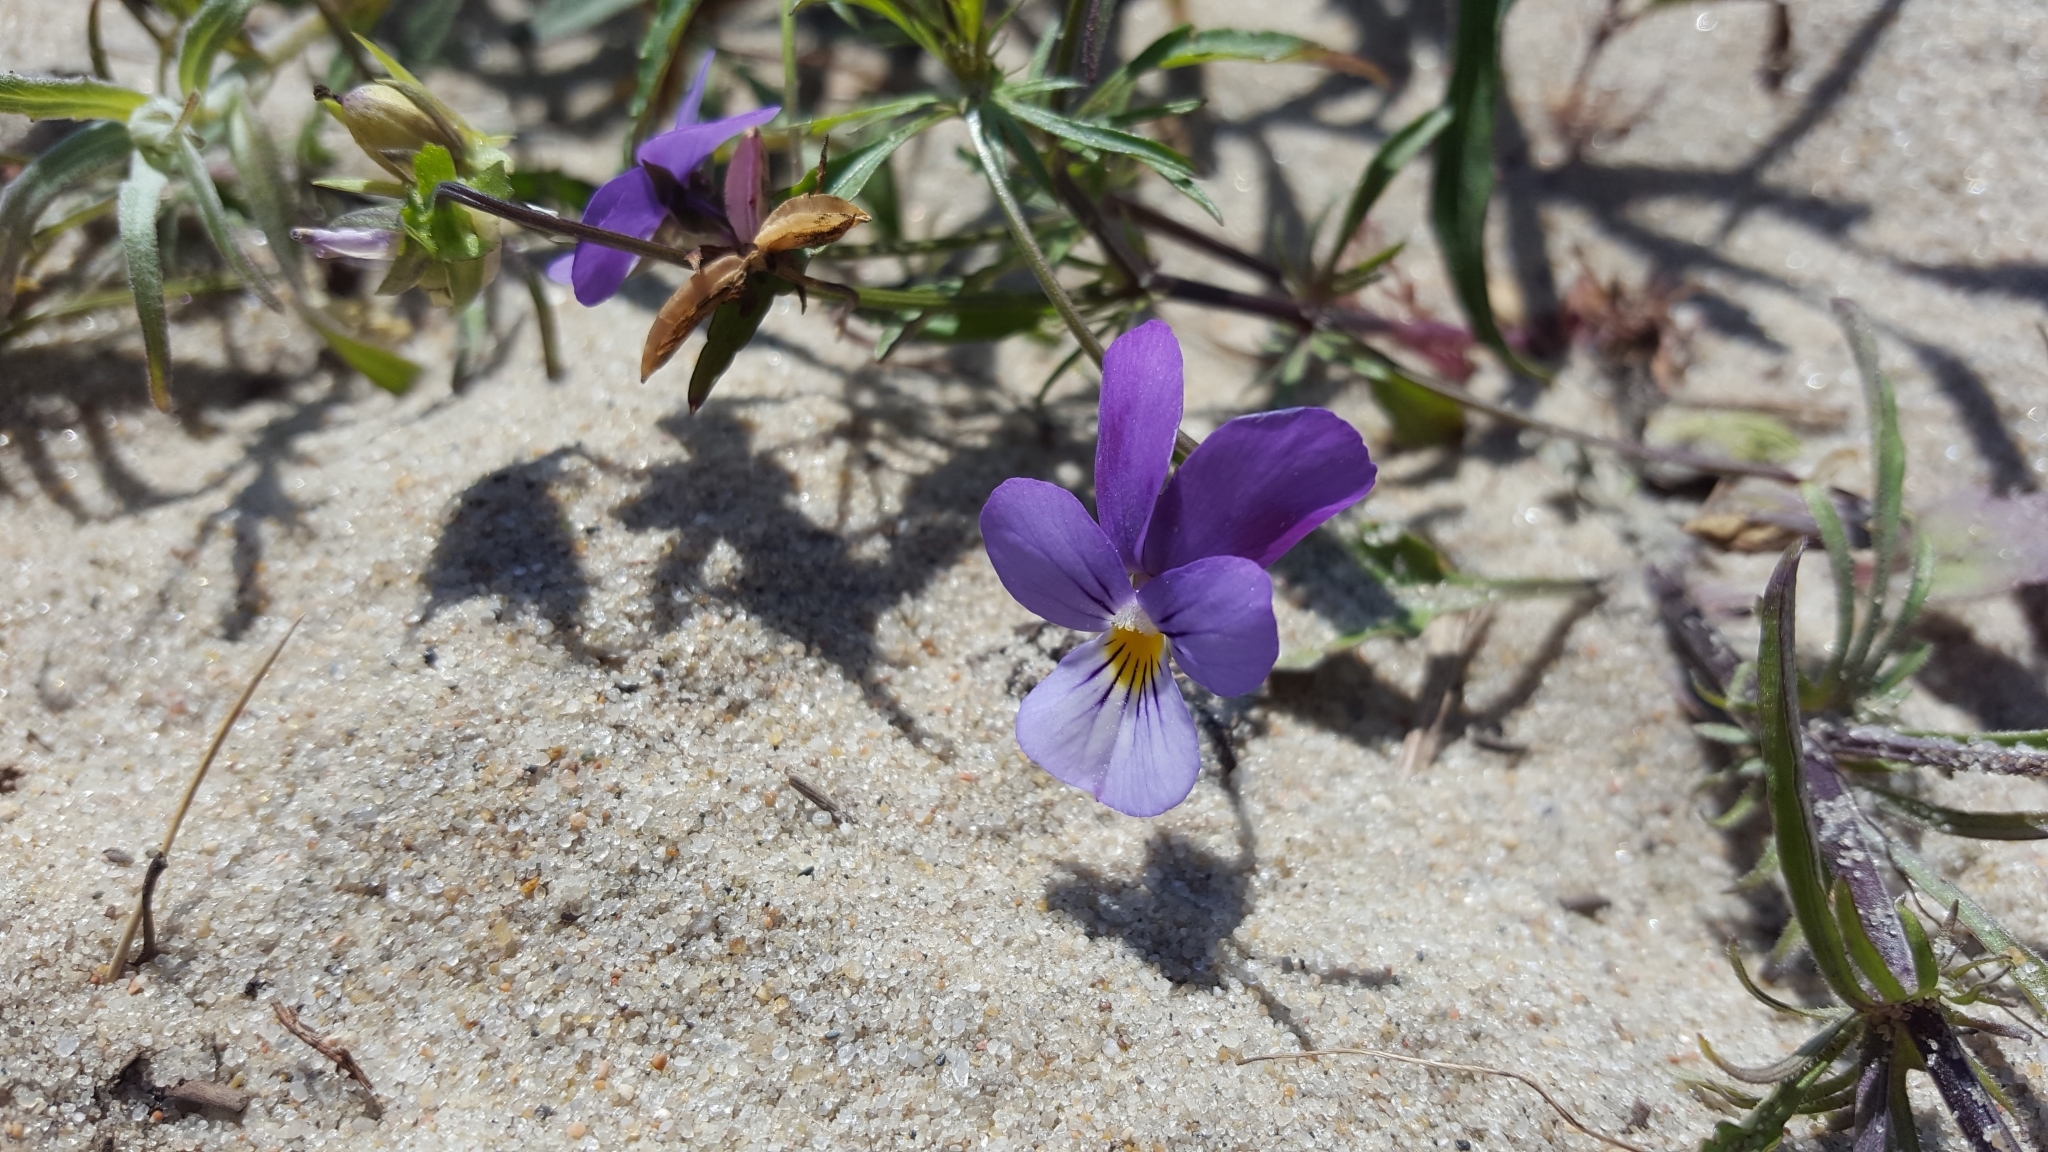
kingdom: Plantae
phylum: Tracheophyta
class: Magnoliopsida
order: Malpighiales
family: Violaceae
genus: Viola
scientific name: Viola tricolor
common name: Pansy
